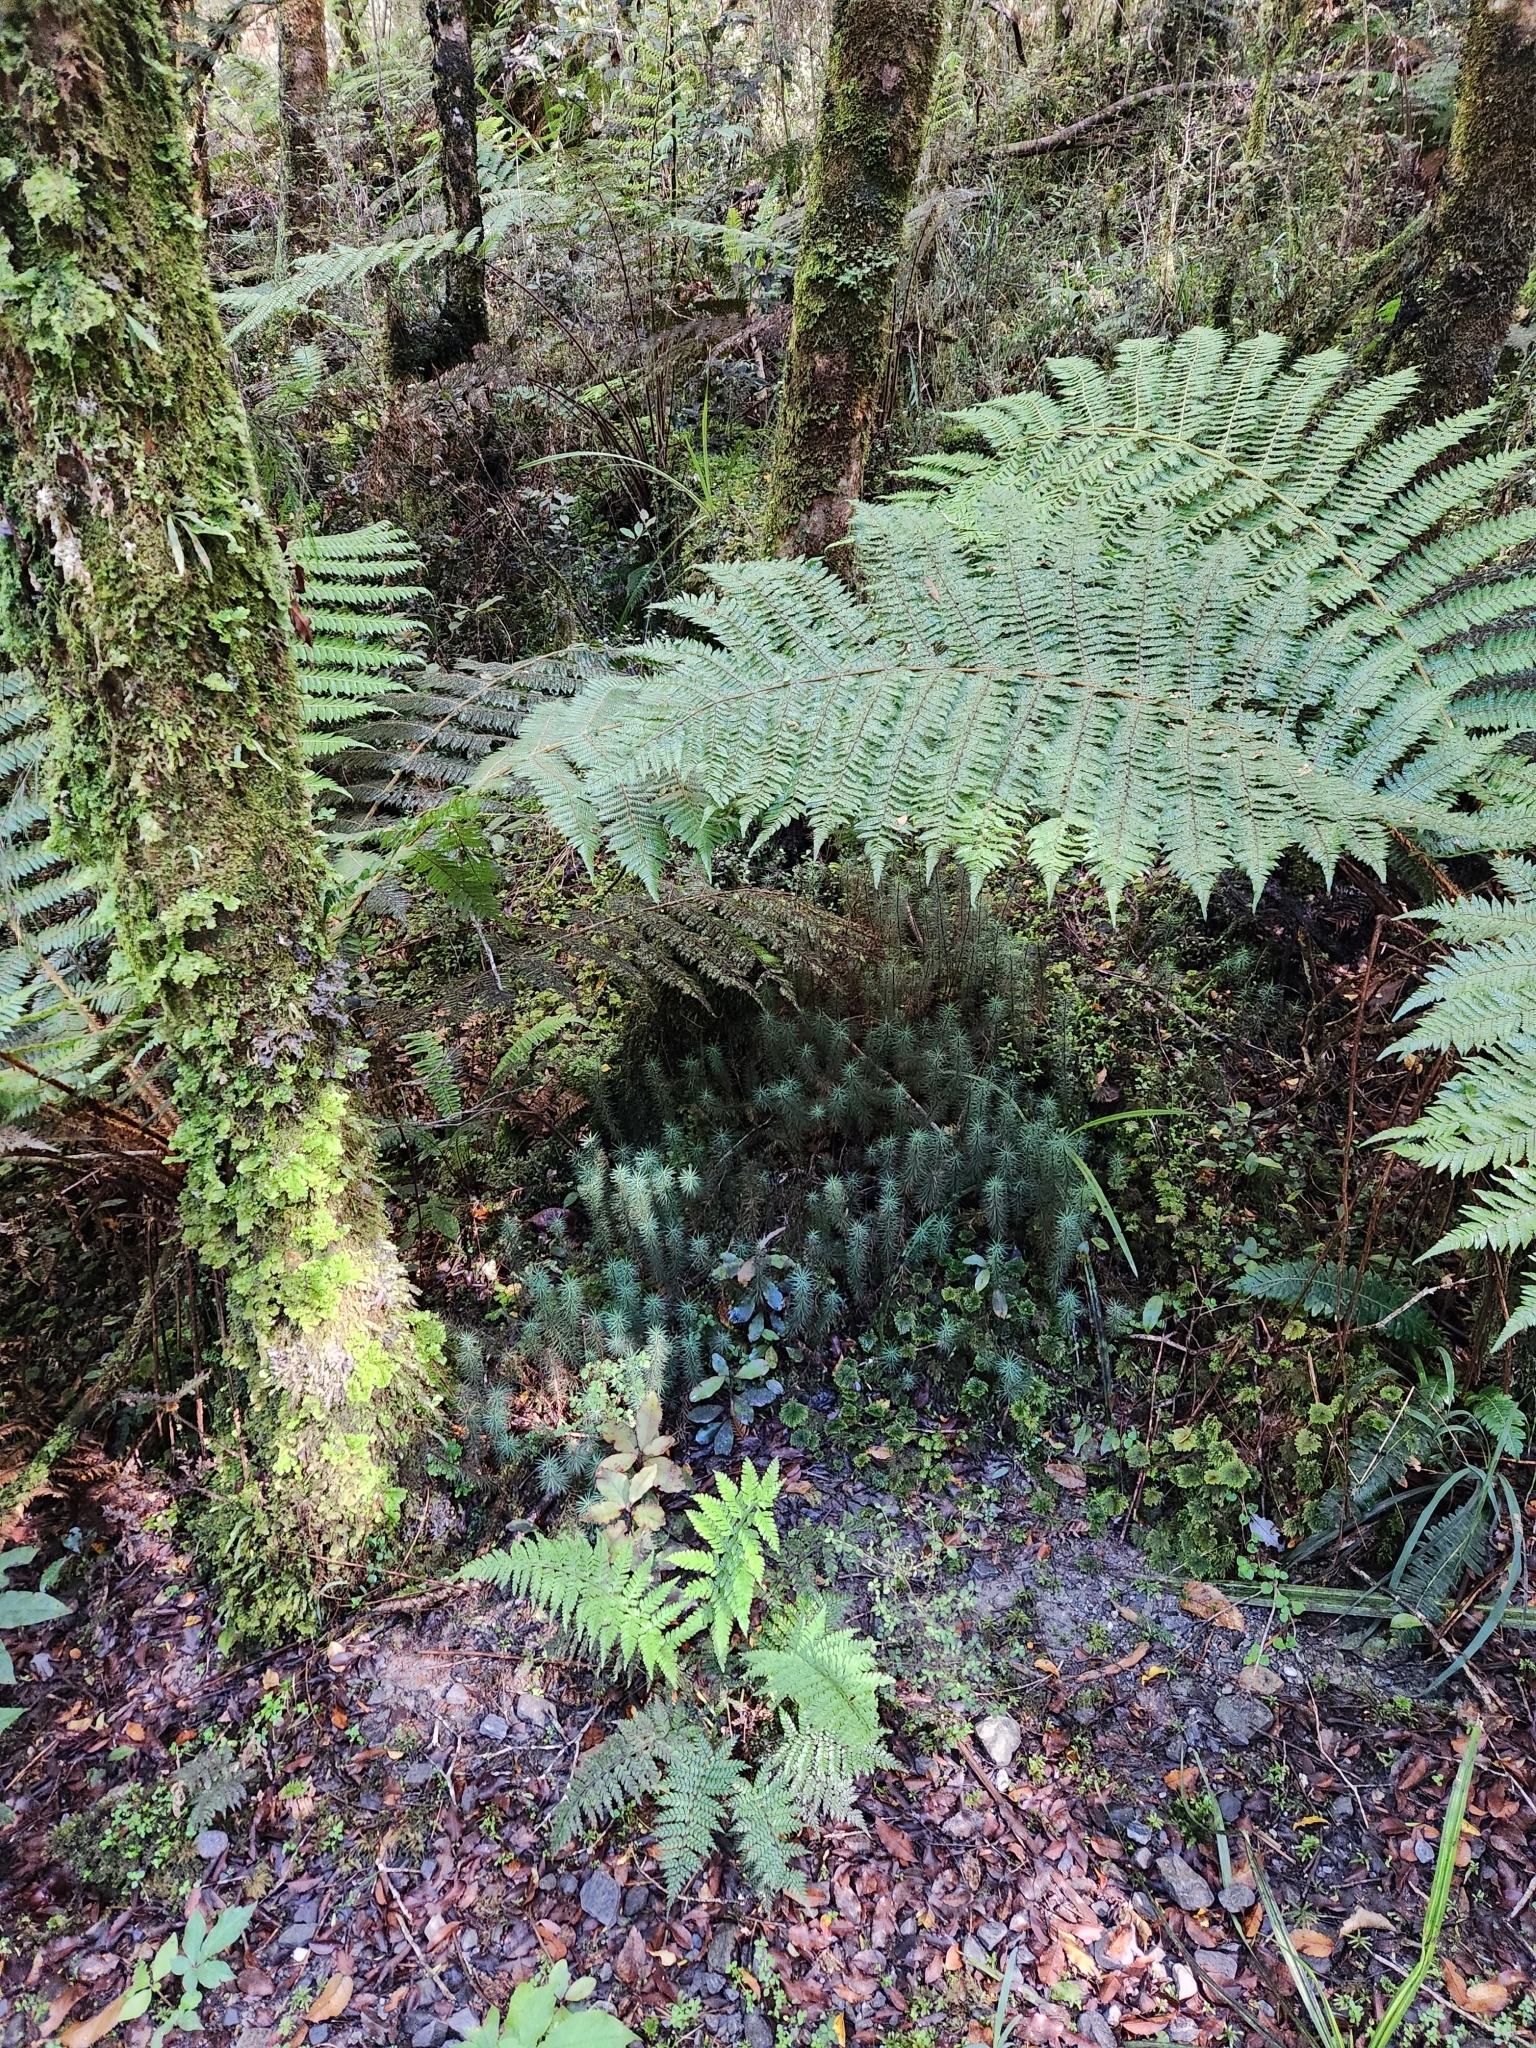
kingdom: Plantae
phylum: Bryophyta
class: Polytrichopsida
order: Polytrichales
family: Polytrichaceae
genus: Dawsonia
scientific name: Dawsonia superba
